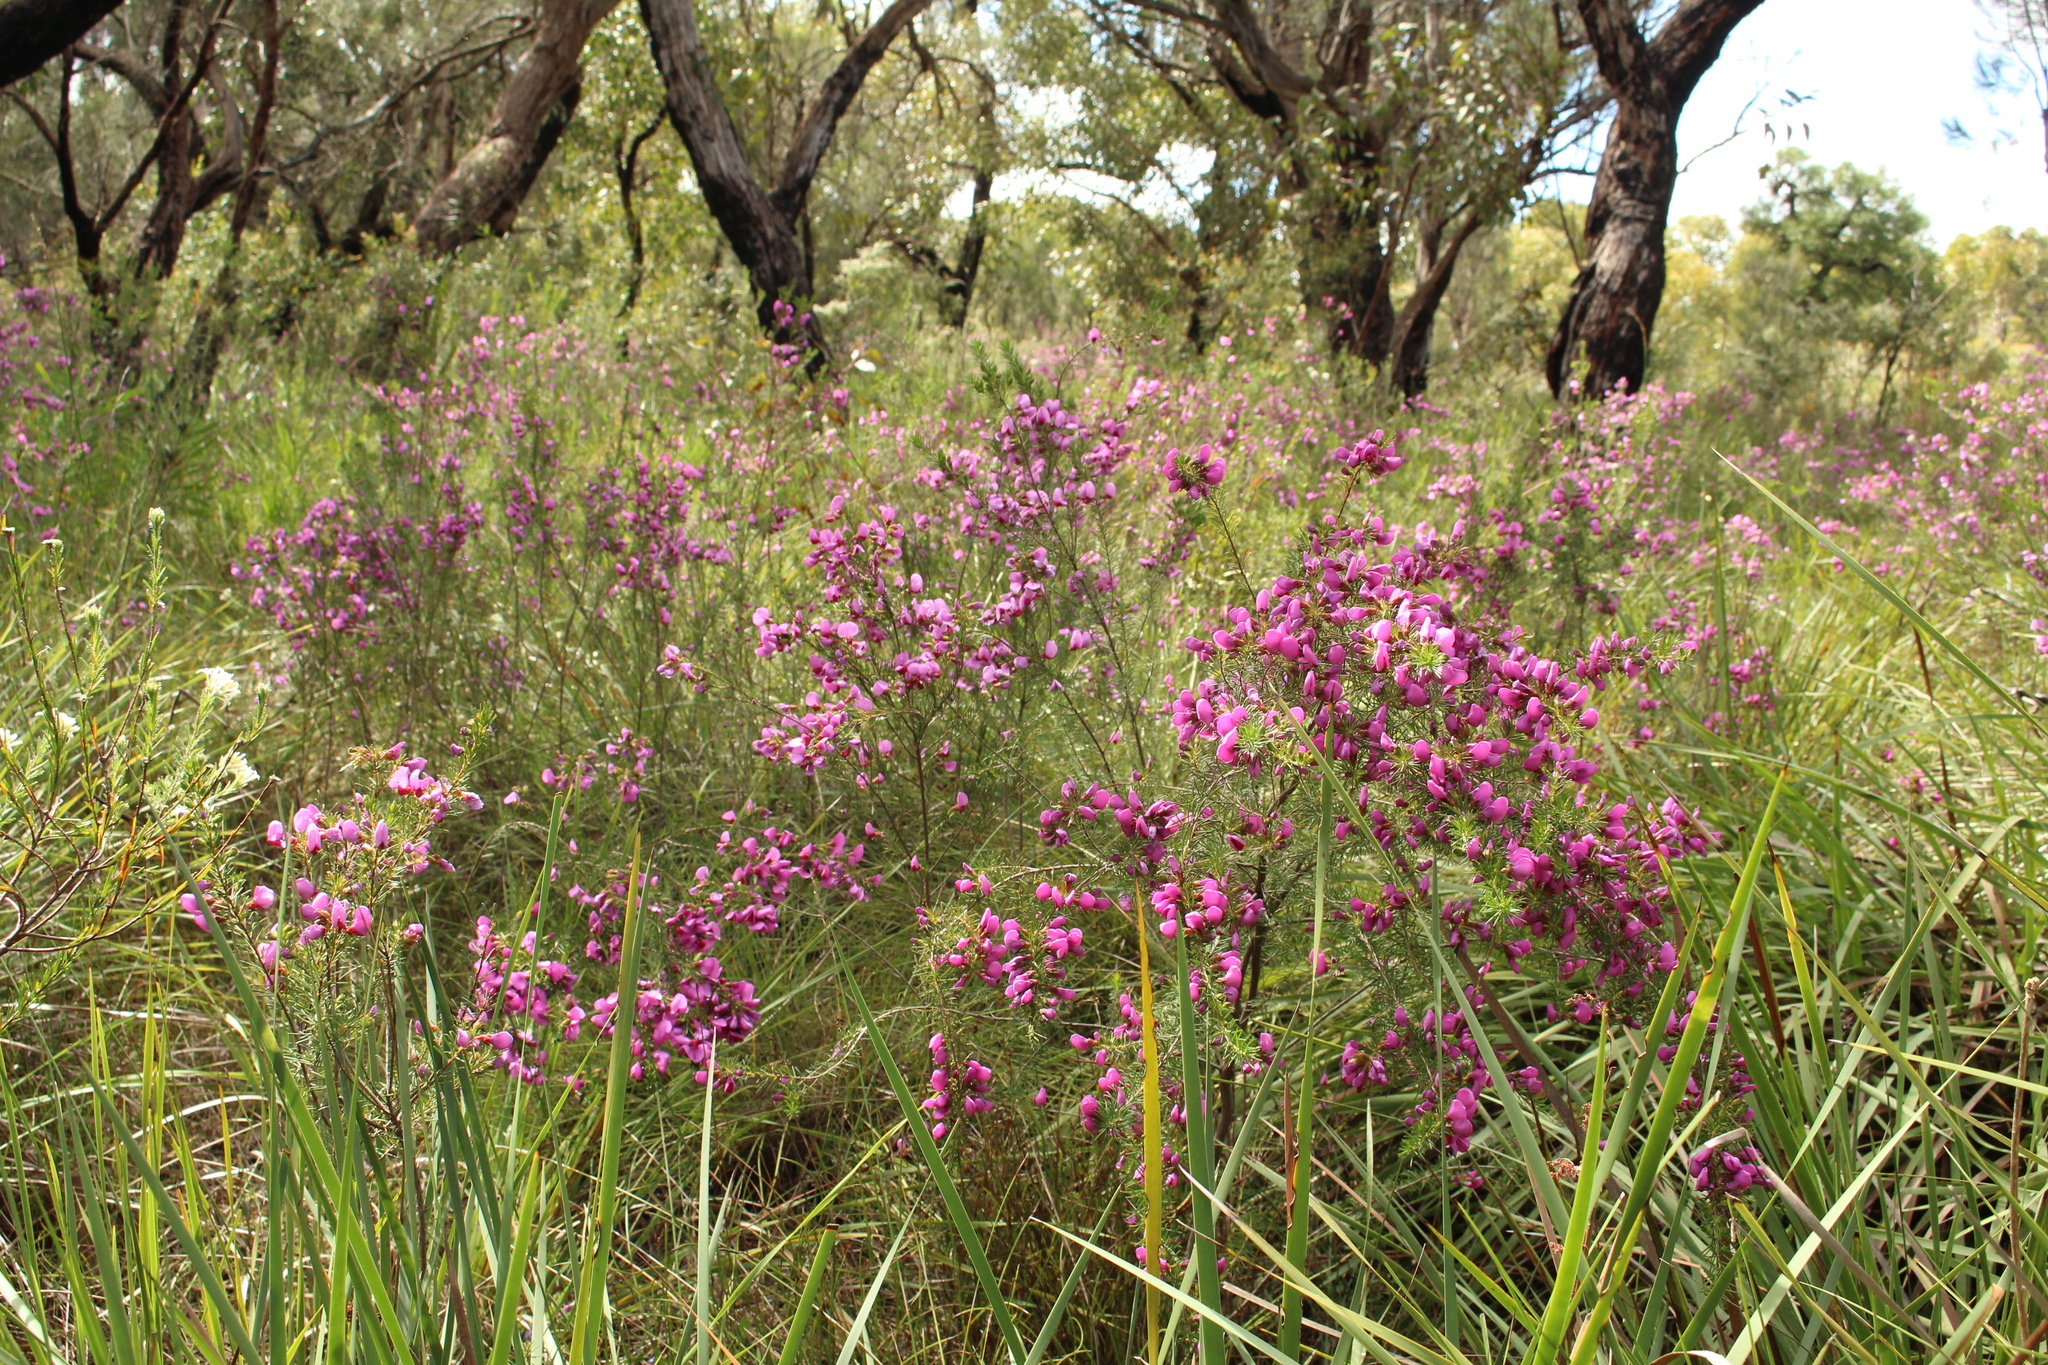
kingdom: Plantae
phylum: Tracheophyta
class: Magnoliopsida
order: Fabales
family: Fabaceae
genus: Gompholobium
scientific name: Gompholobium scabrum
